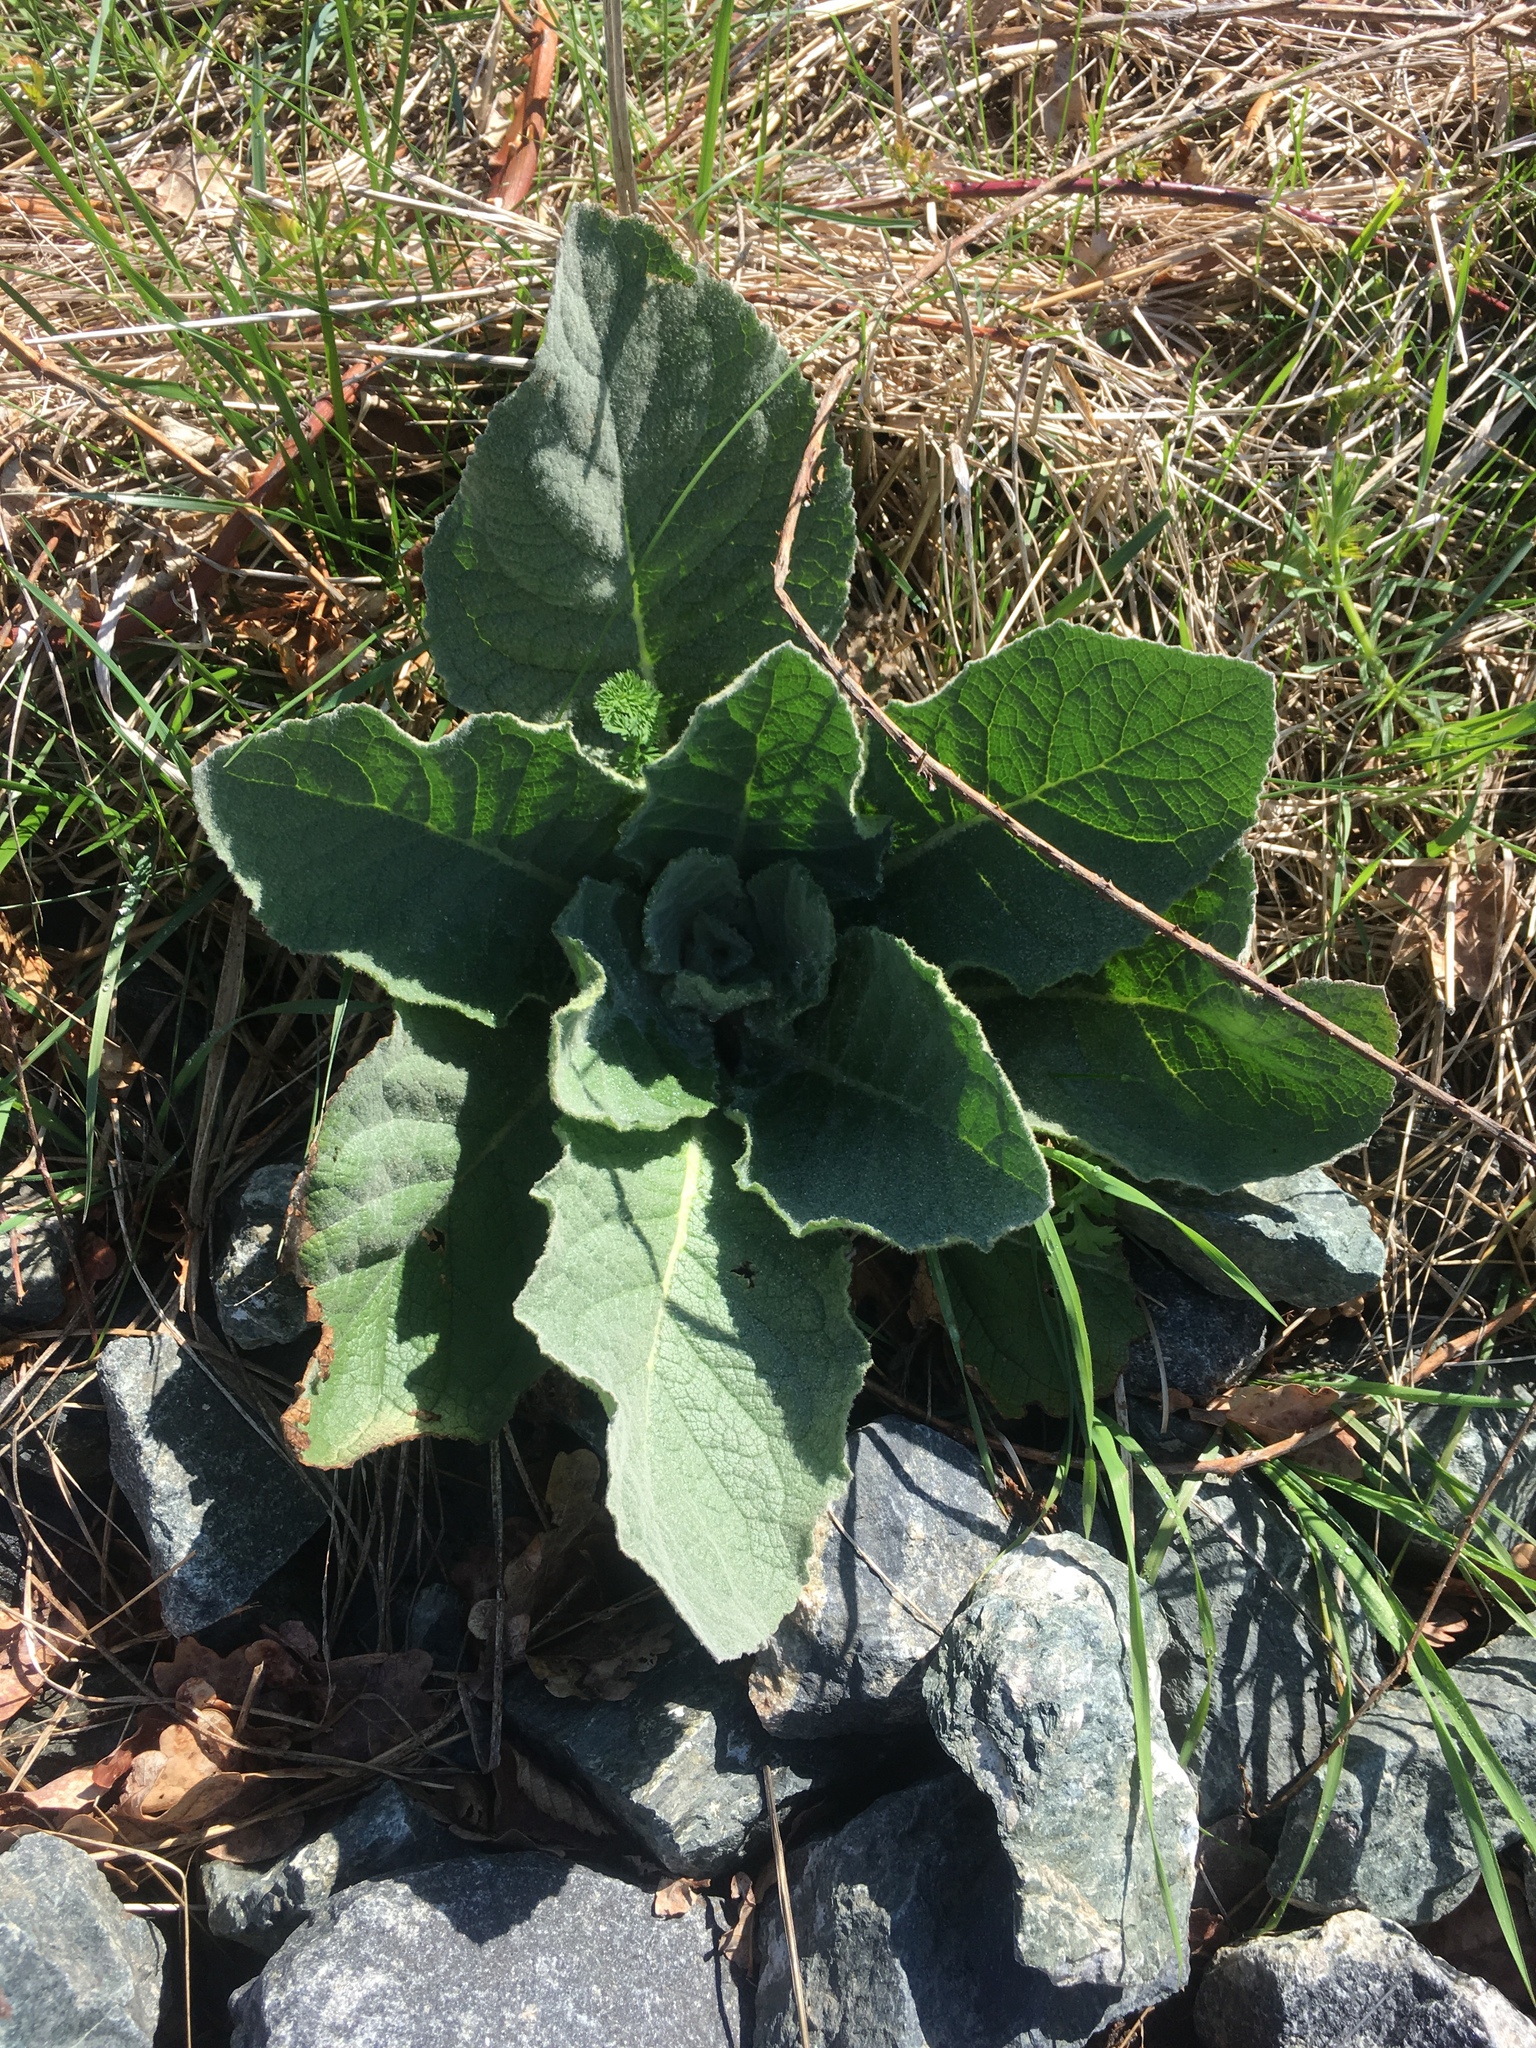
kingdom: Plantae
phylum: Tracheophyta
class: Magnoliopsida
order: Lamiales
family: Scrophulariaceae
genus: Verbascum
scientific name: Verbascum thapsus
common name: Common mullein
